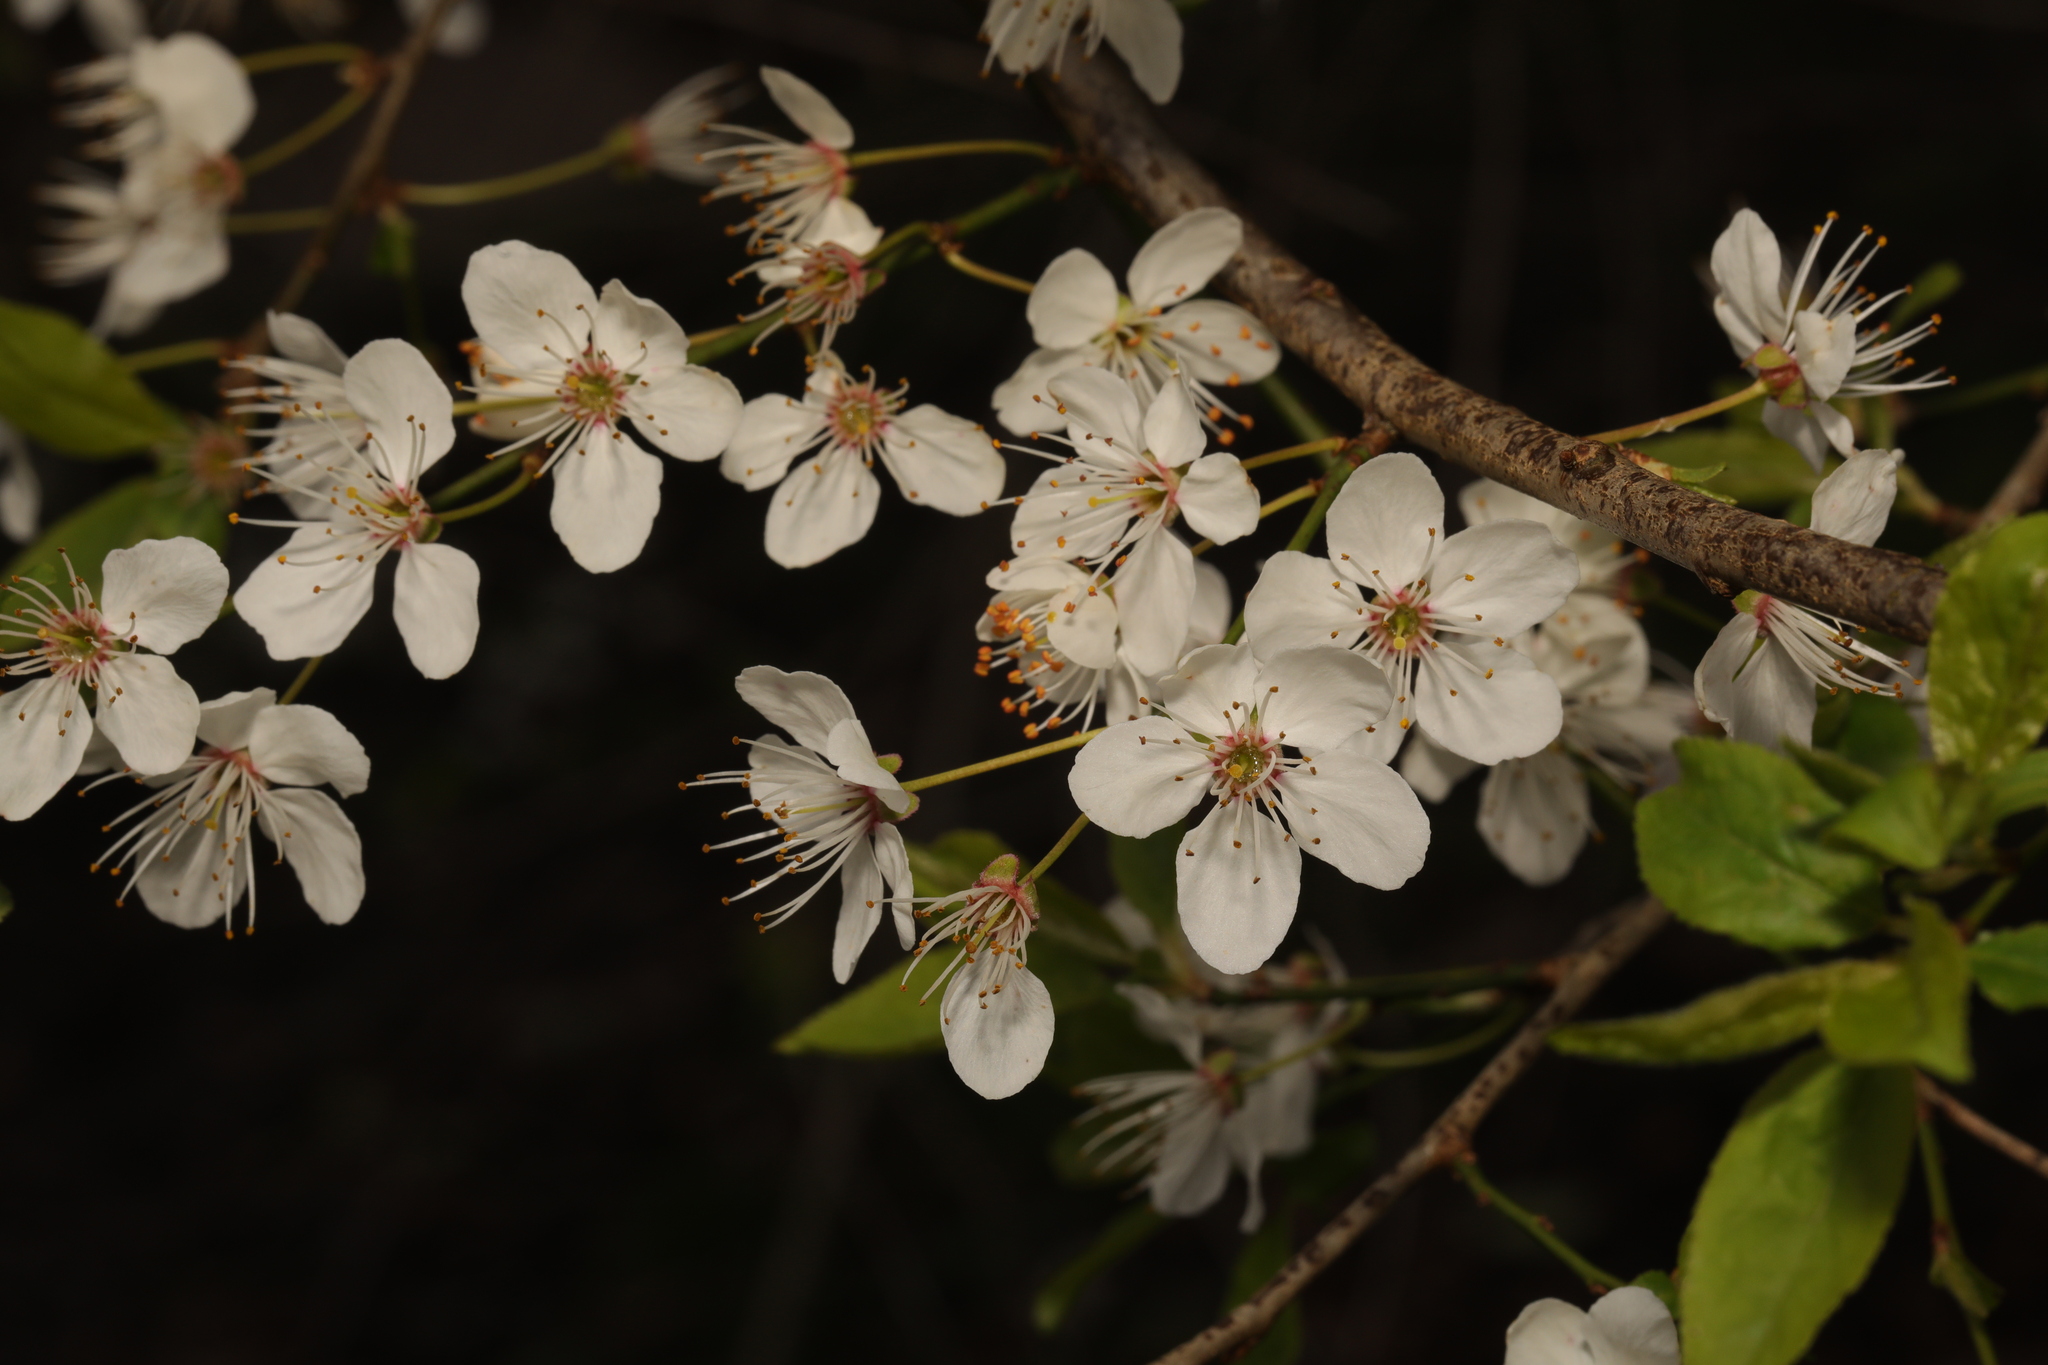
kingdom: Plantae
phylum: Tracheophyta
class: Magnoliopsida
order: Rosales
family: Rosaceae
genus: Prunus
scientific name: Prunus cerasifera
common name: Cherry plum
